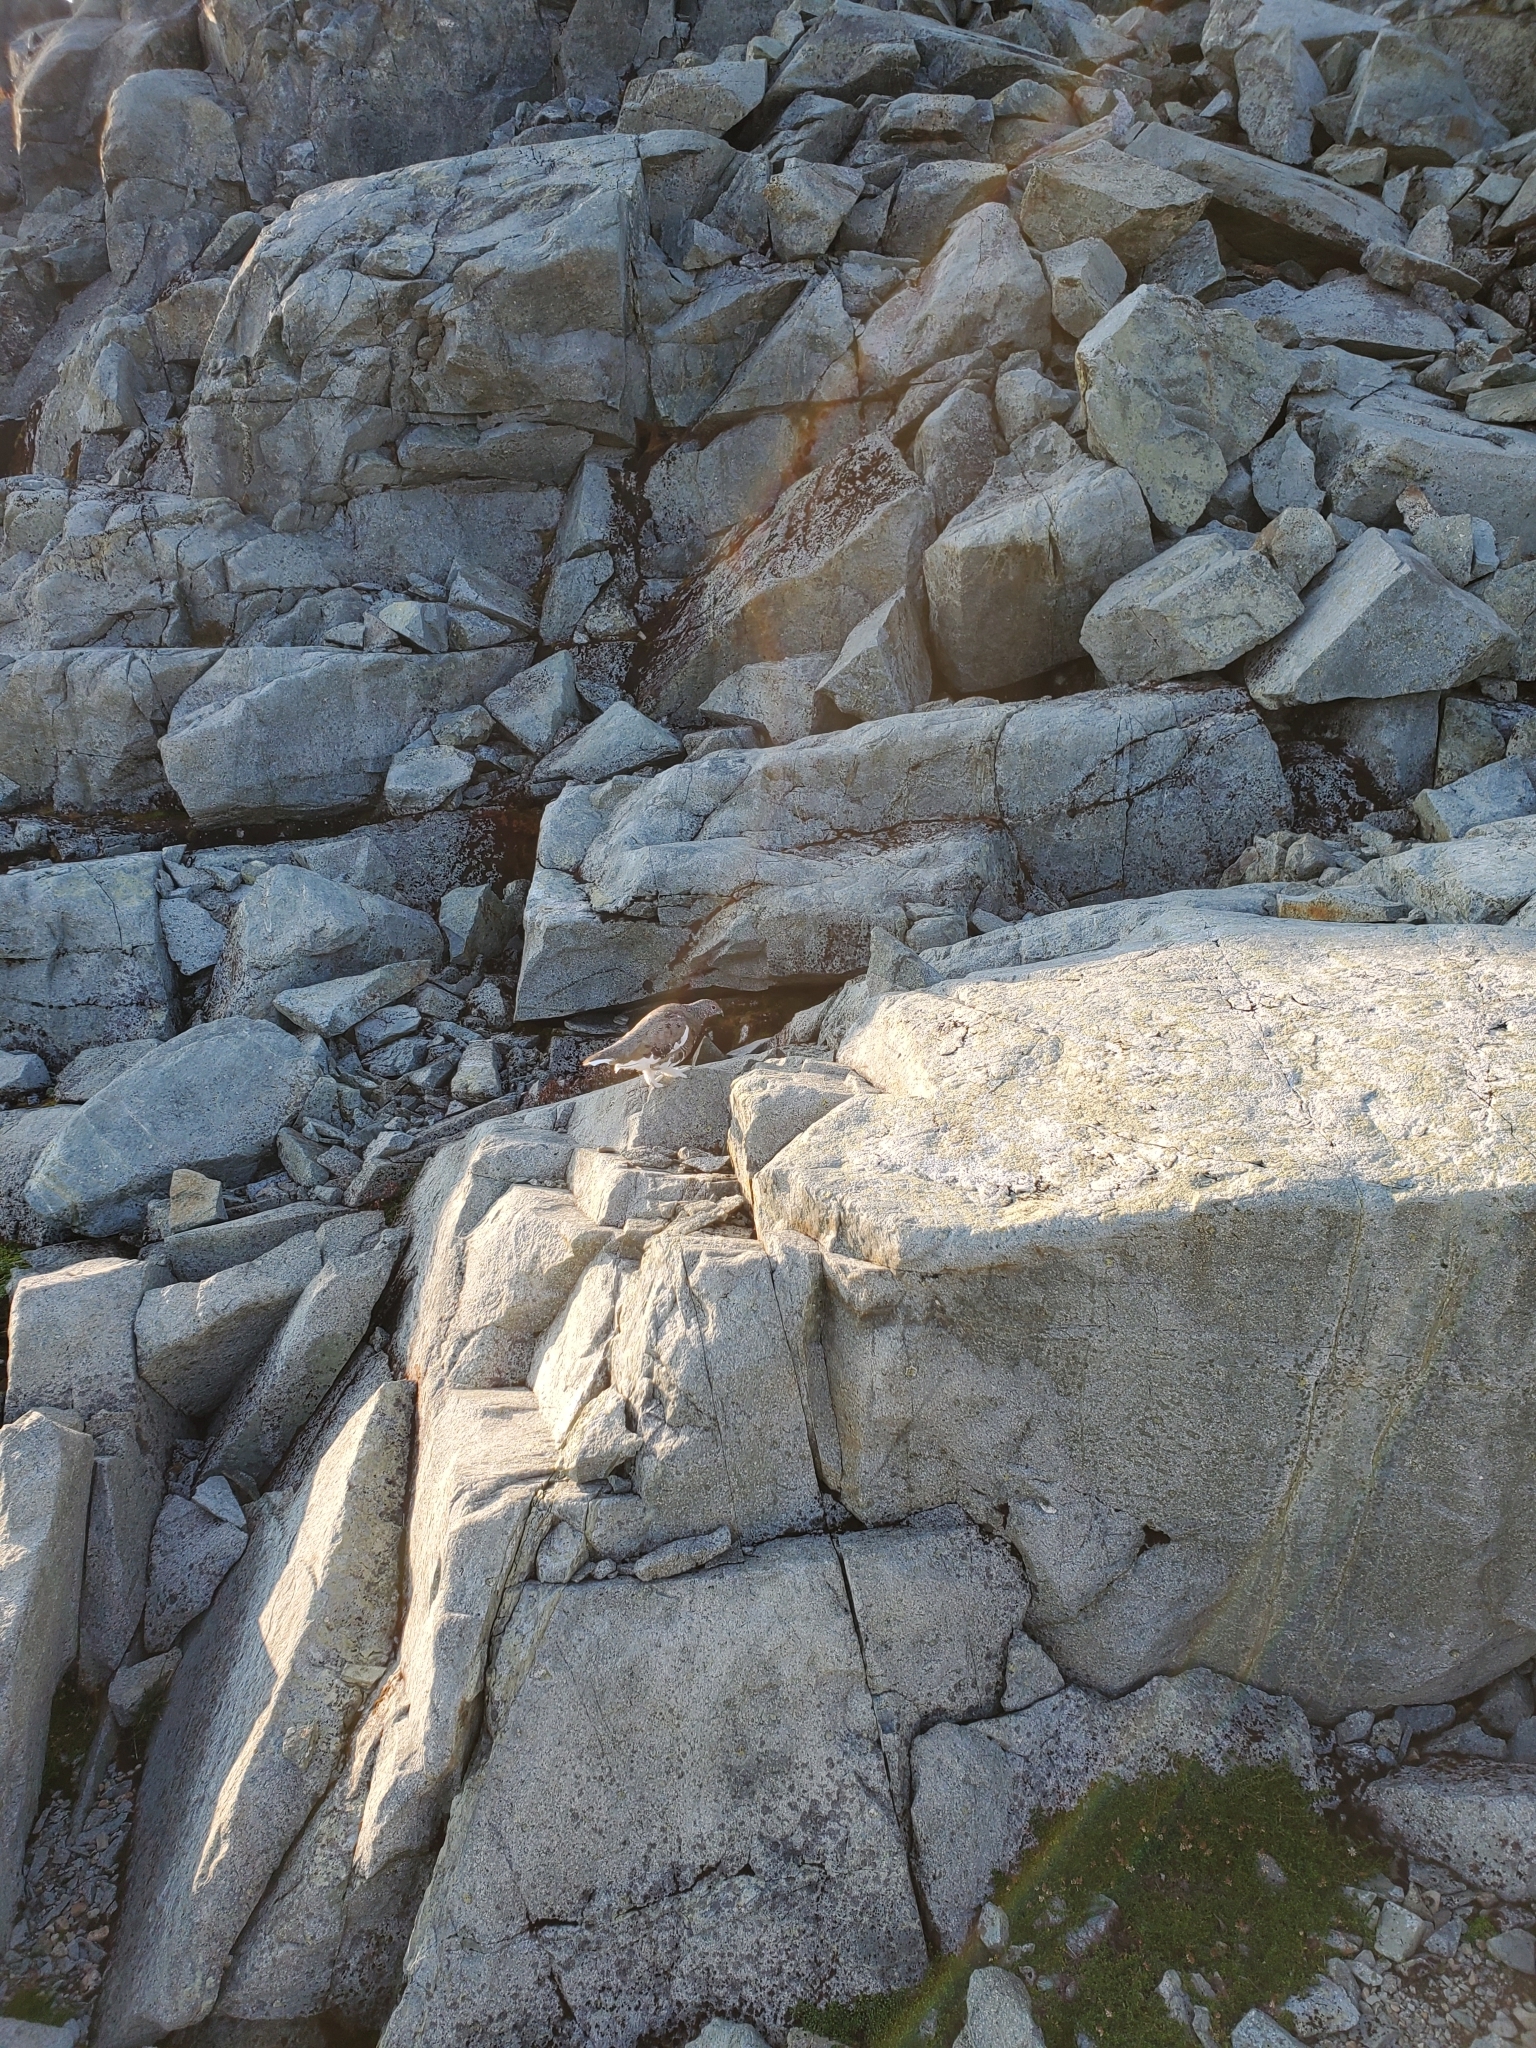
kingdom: Animalia
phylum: Chordata
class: Aves
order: Galliformes
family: Phasianidae
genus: Lagopus
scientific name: Lagopus leucura
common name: White-tailed ptarmigan
